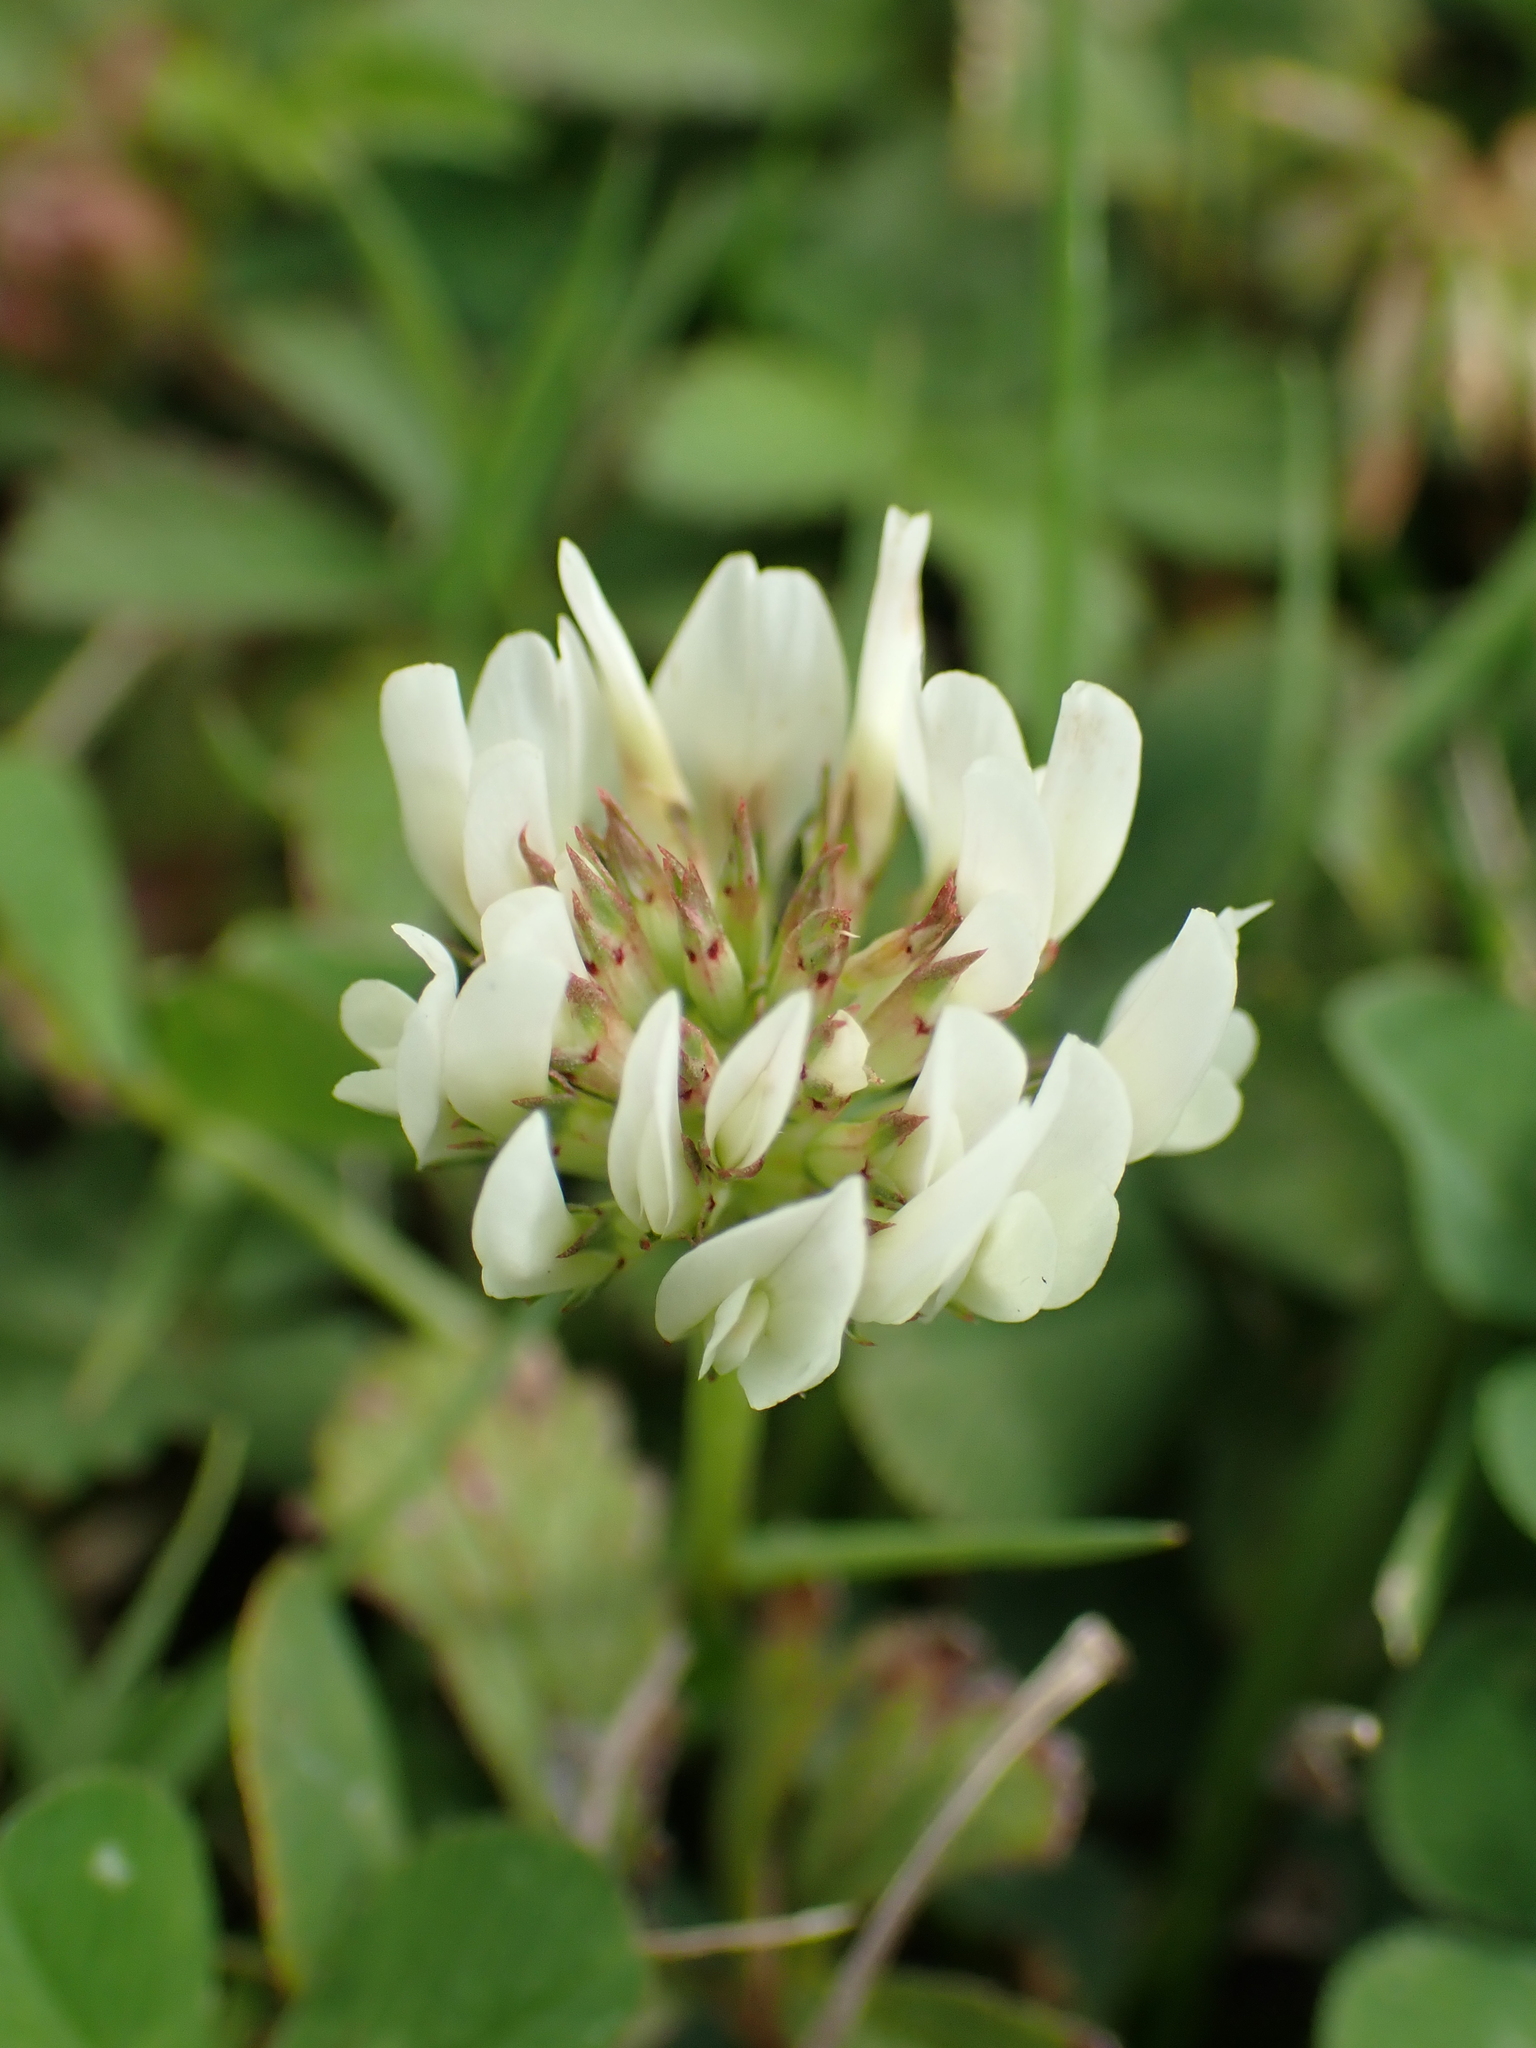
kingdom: Plantae
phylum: Tracheophyta
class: Magnoliopsida
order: Fabales
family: Fabaceae
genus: Trifolium
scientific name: Trifolium repens
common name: White clover
